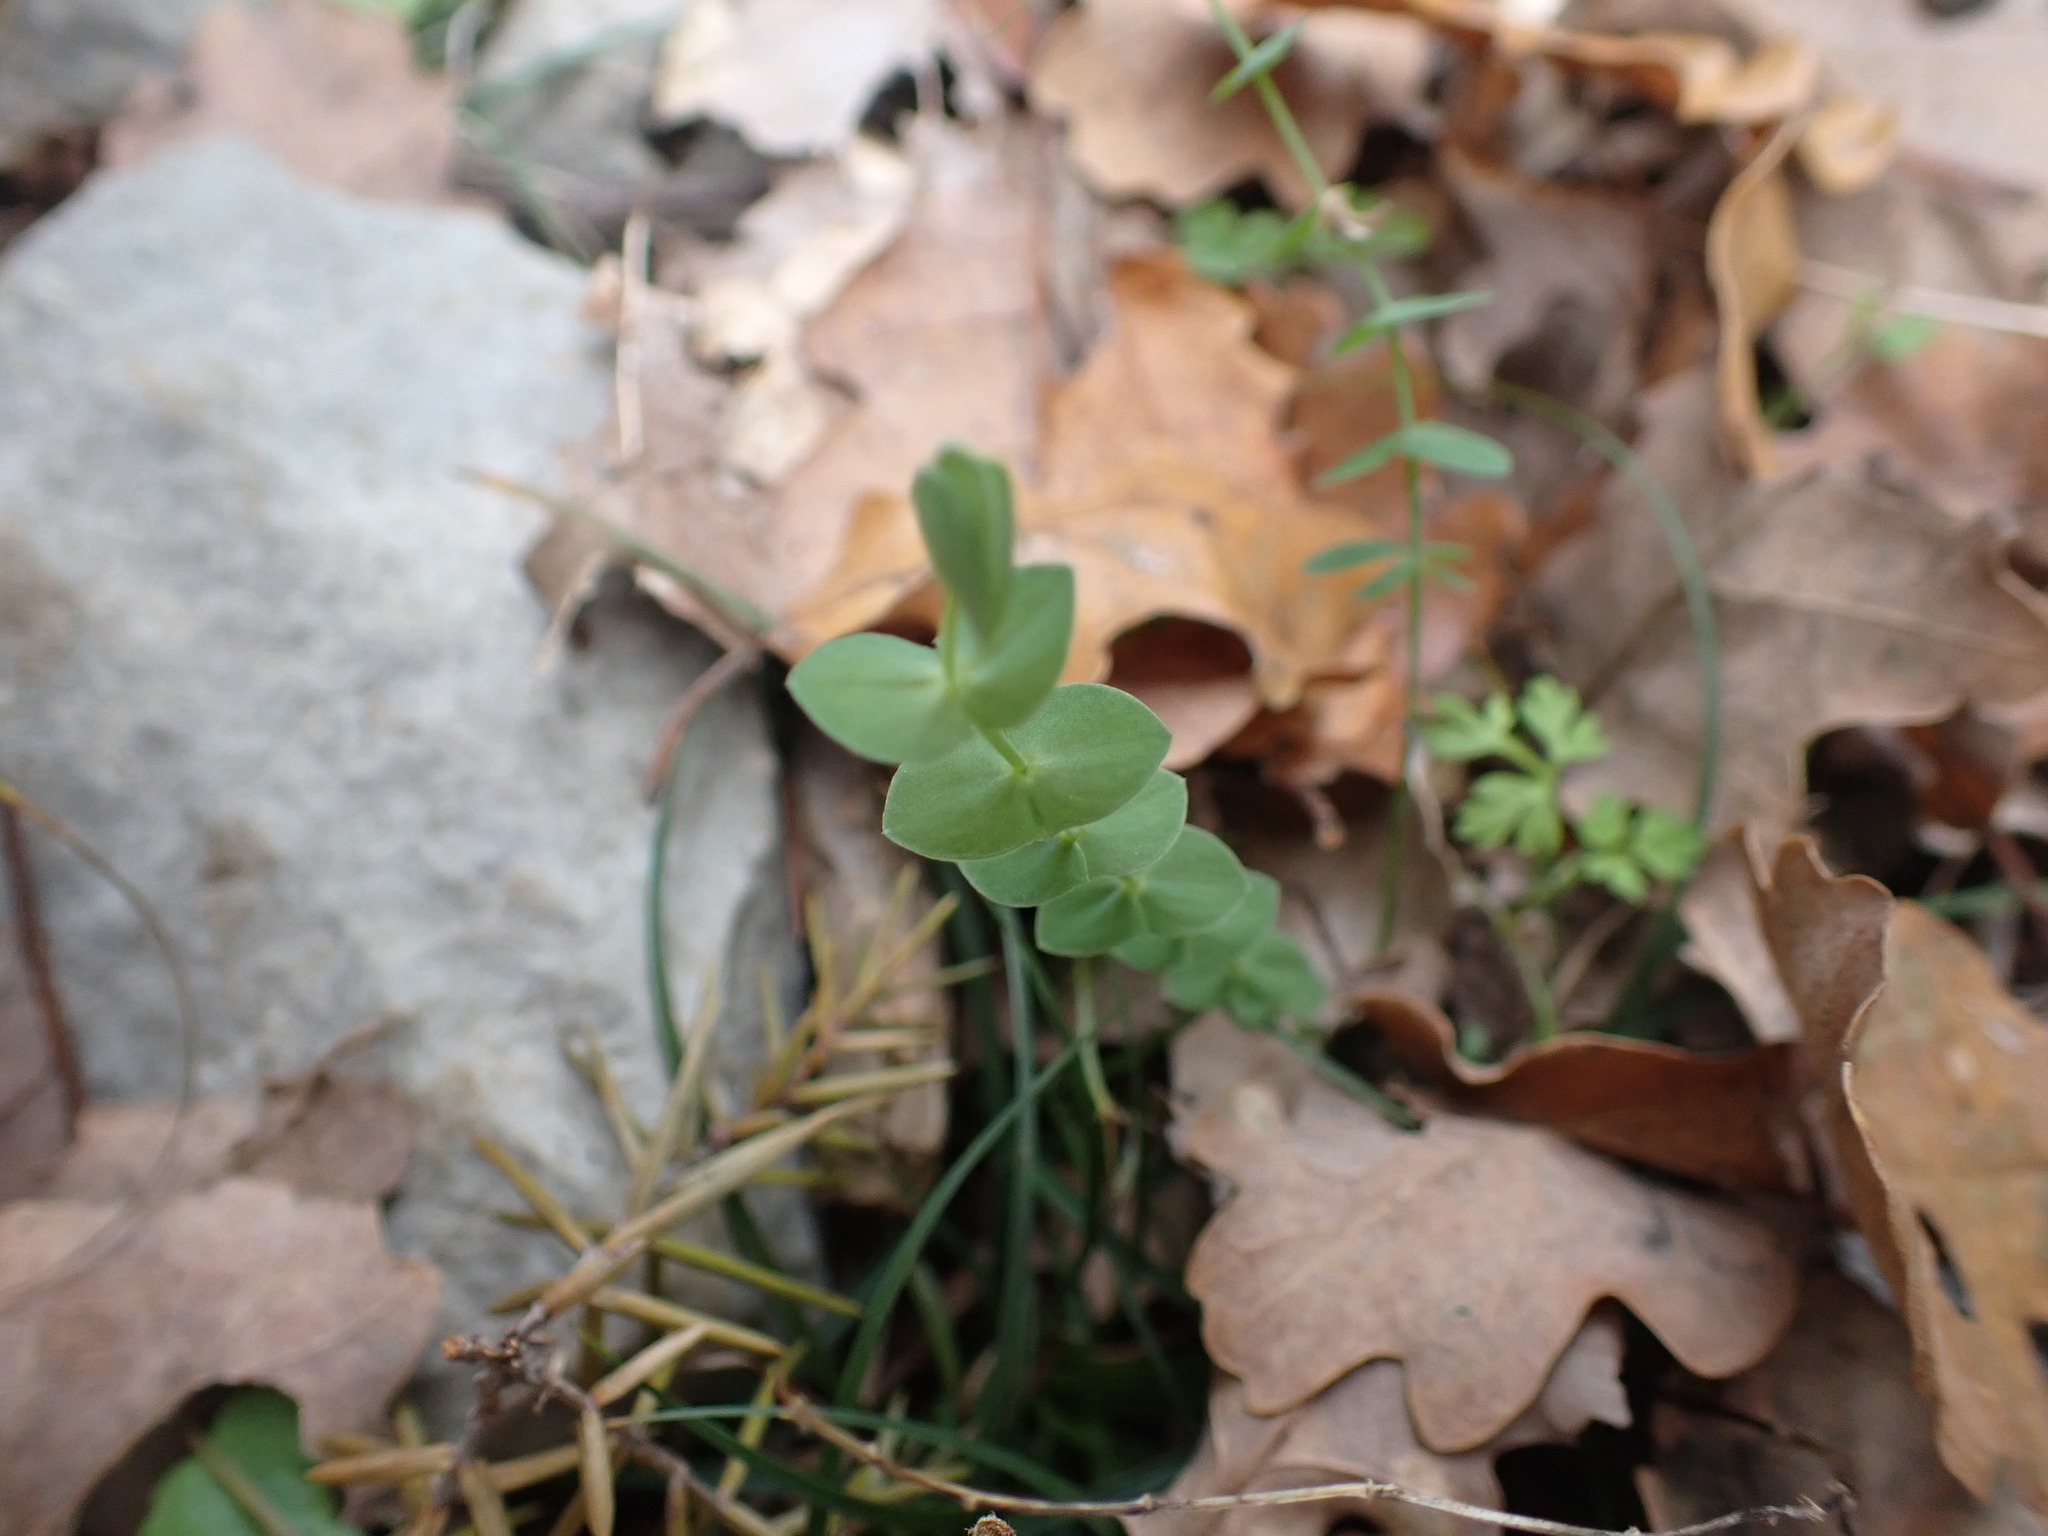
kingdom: Plantae
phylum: Tracheophyta
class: Magnoliopsida
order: Fabales
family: Fabaceae
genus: Lathyrus
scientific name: Lathyrus aphaca
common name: Yellow vetchling
